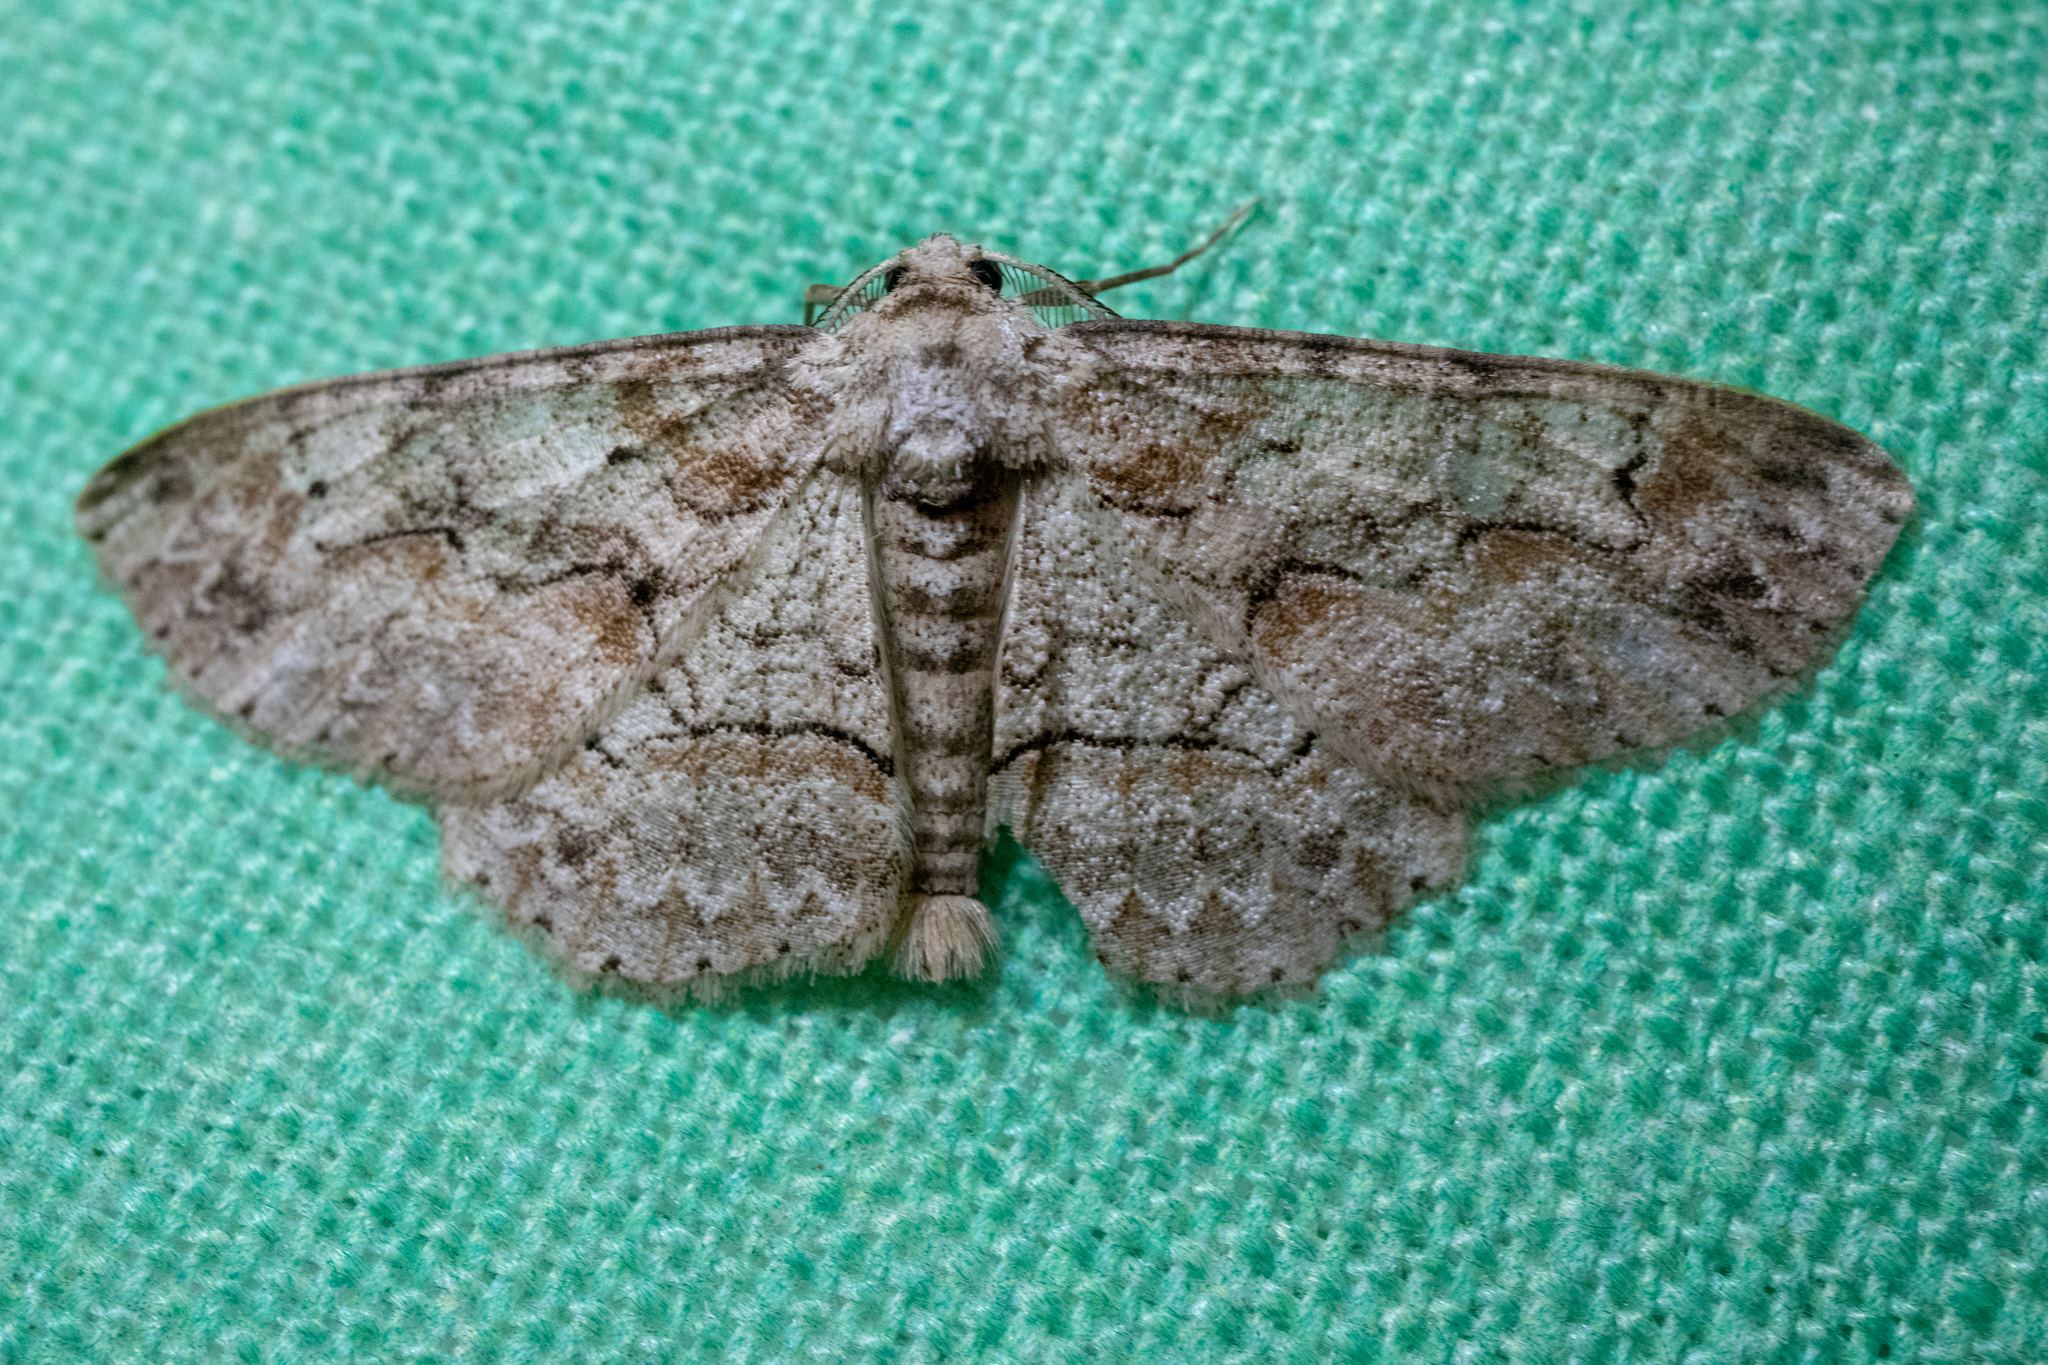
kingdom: Animalia
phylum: Arthropoda
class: Insecta
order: Lepidoptera
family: Geometridae
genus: Iridopsis
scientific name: Iridopsis defectaria
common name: Brown-shaded gray
